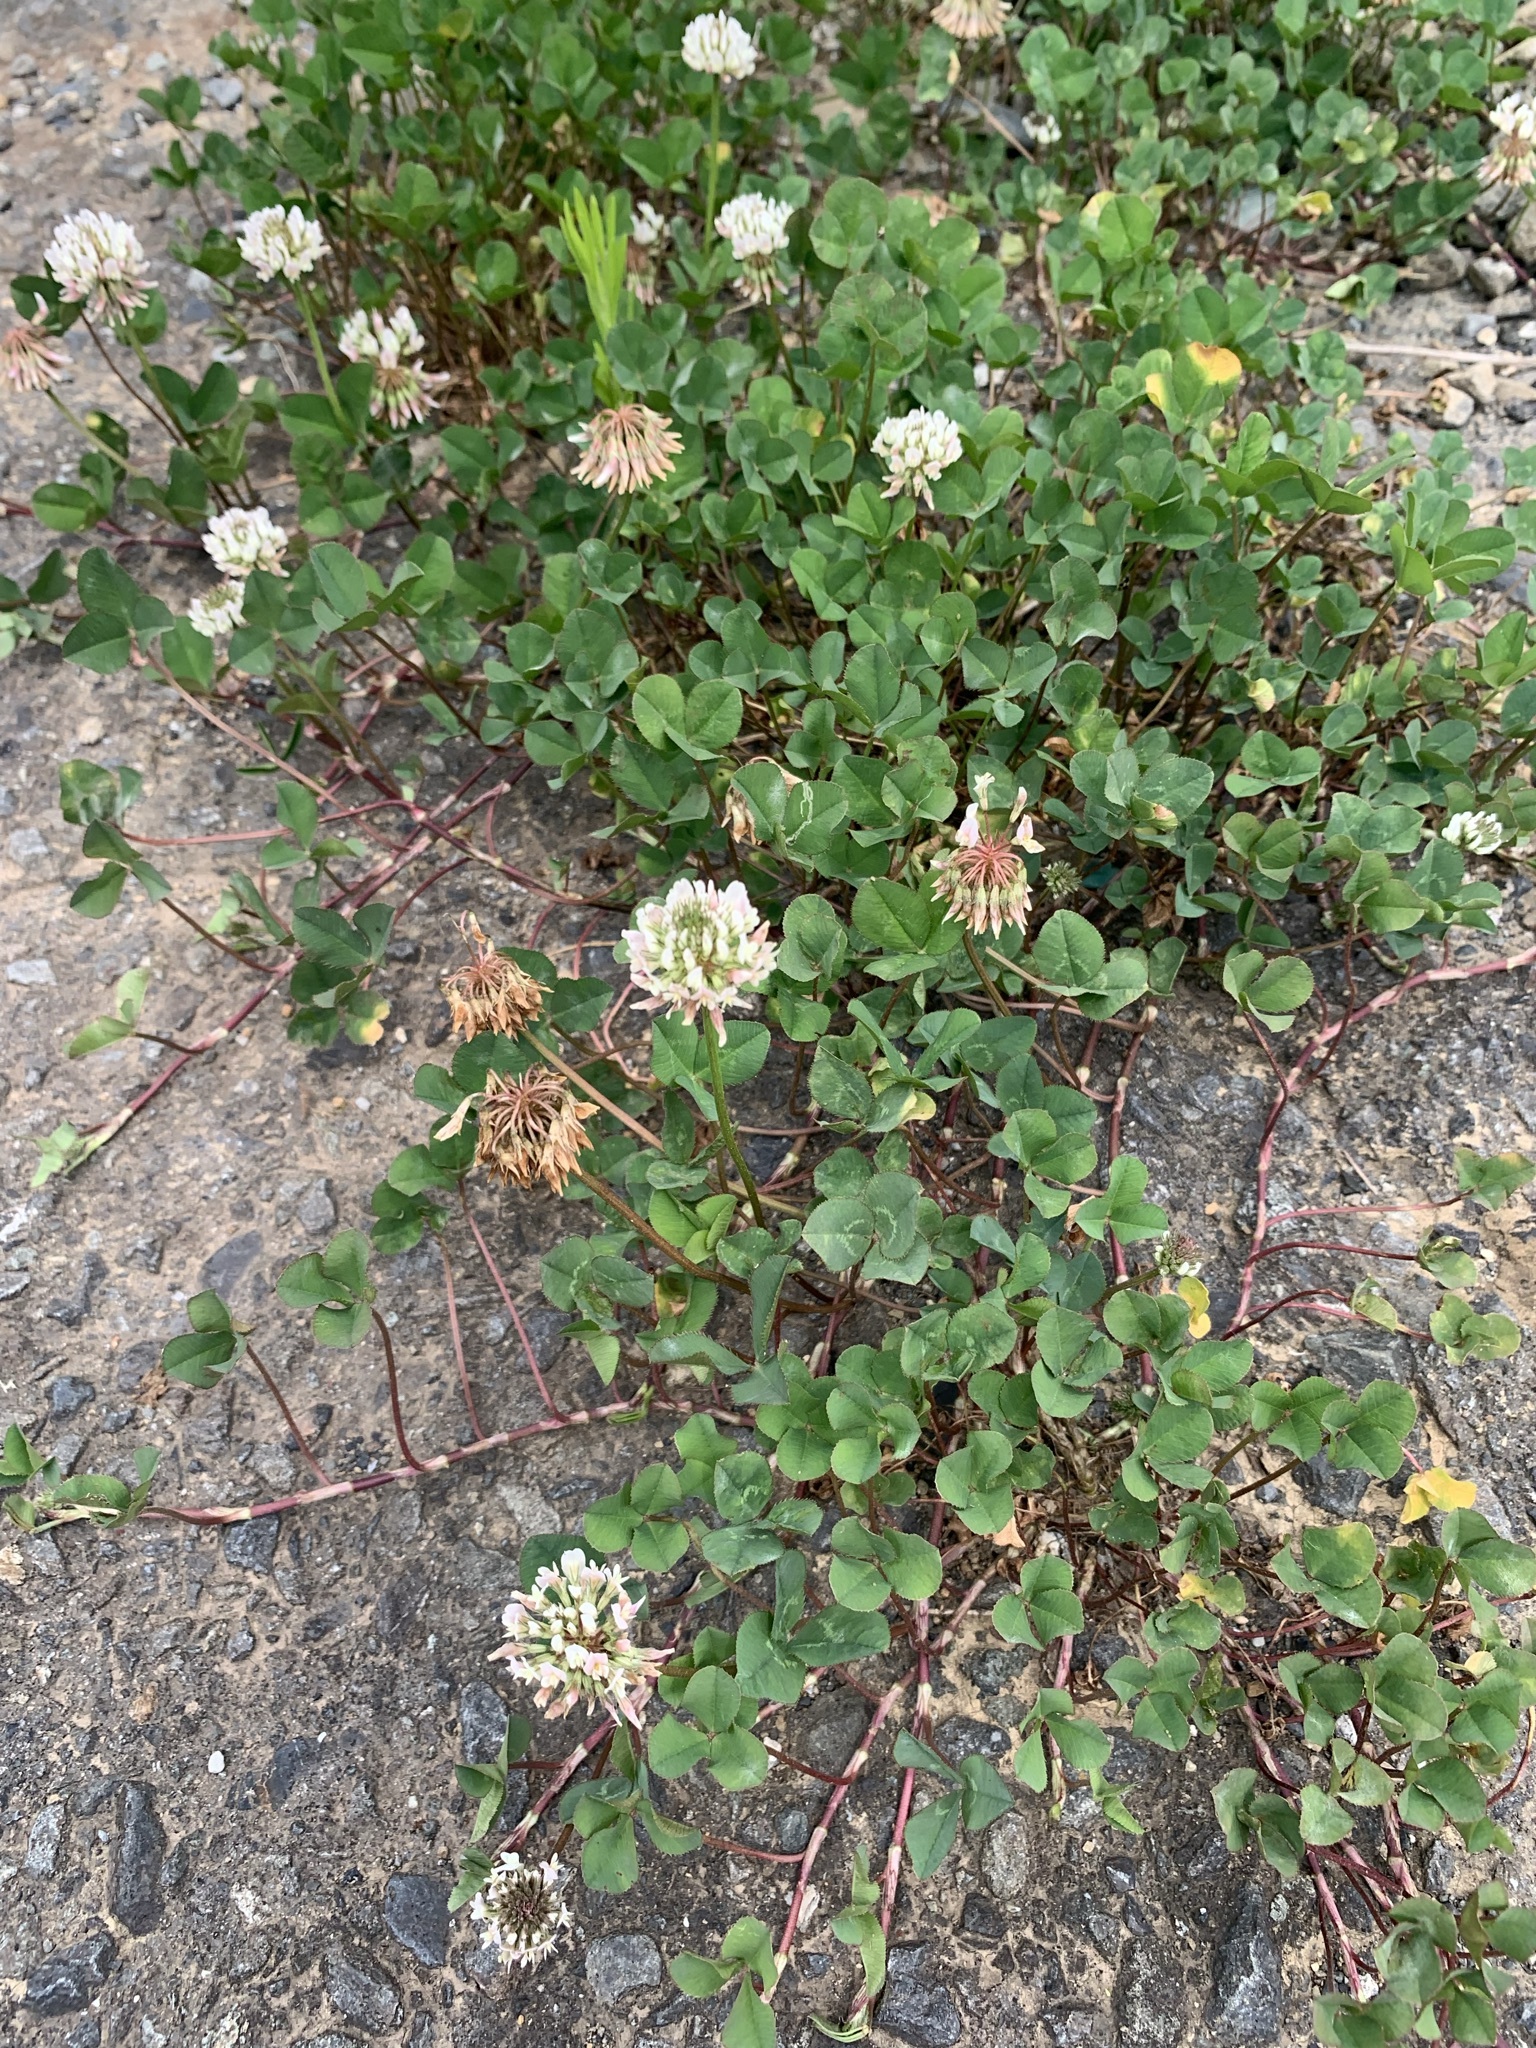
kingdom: Plantae
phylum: Tracheophyta
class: Magnoliopsida
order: Fabales
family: Fabaceae
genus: Trifolium
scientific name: Trifolium repens
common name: White clover
